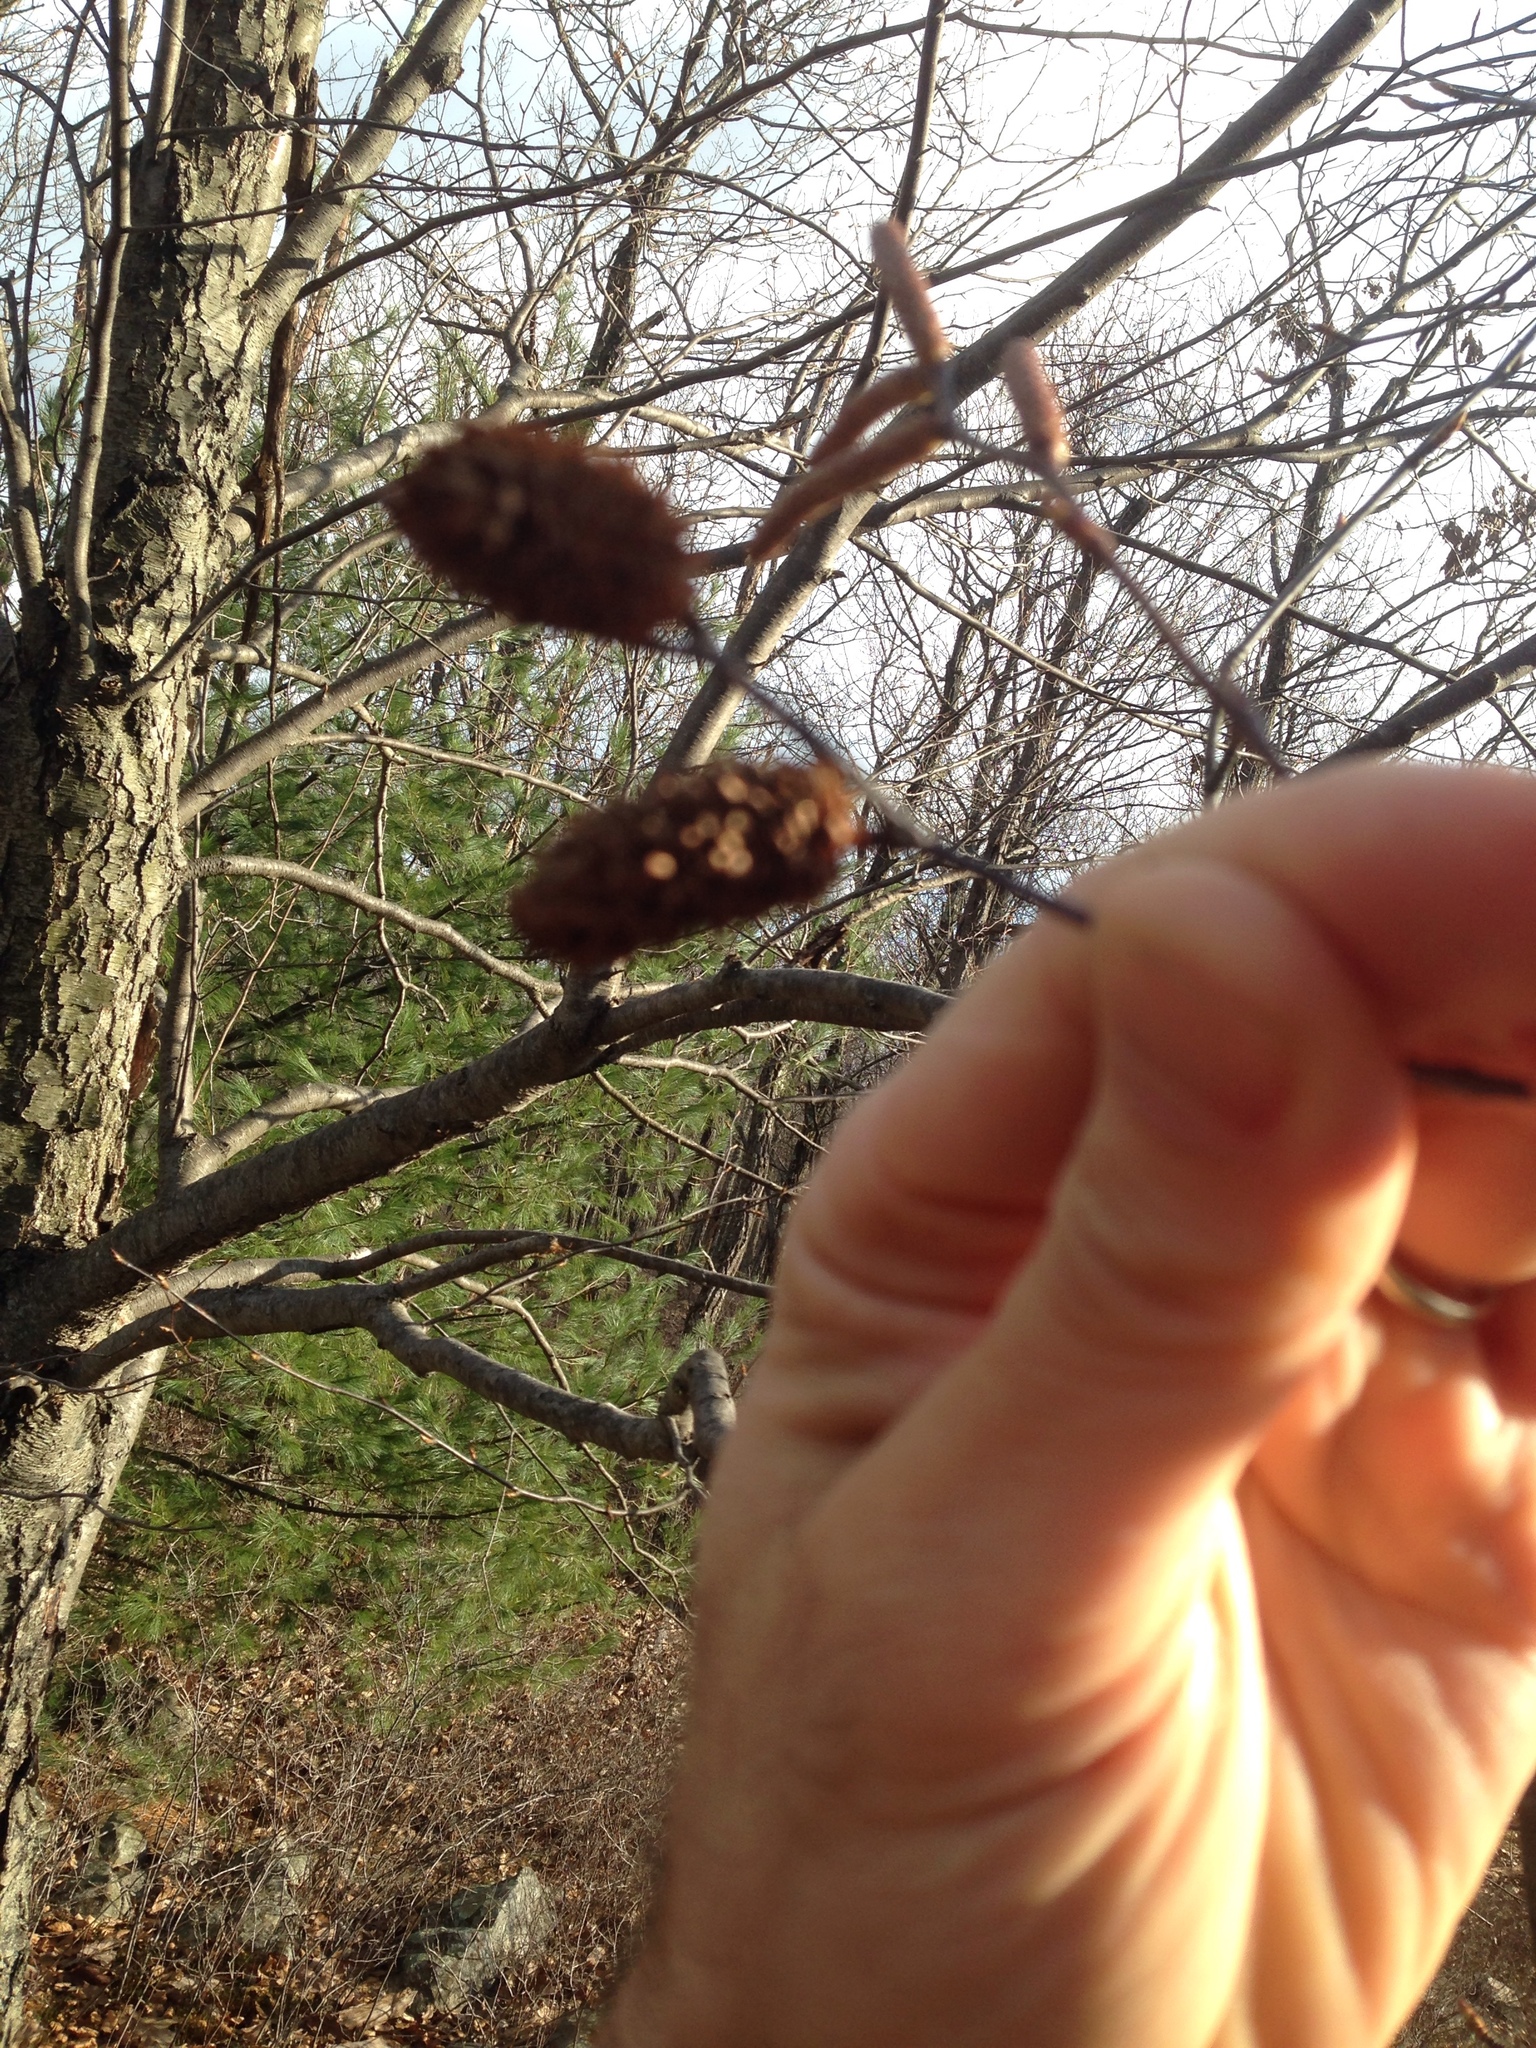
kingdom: Plantae
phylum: Tracheophyta
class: Magnoliopsida
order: Fagales
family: Betulaceae
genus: Betula
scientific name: Betula lenta
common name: Black birch
